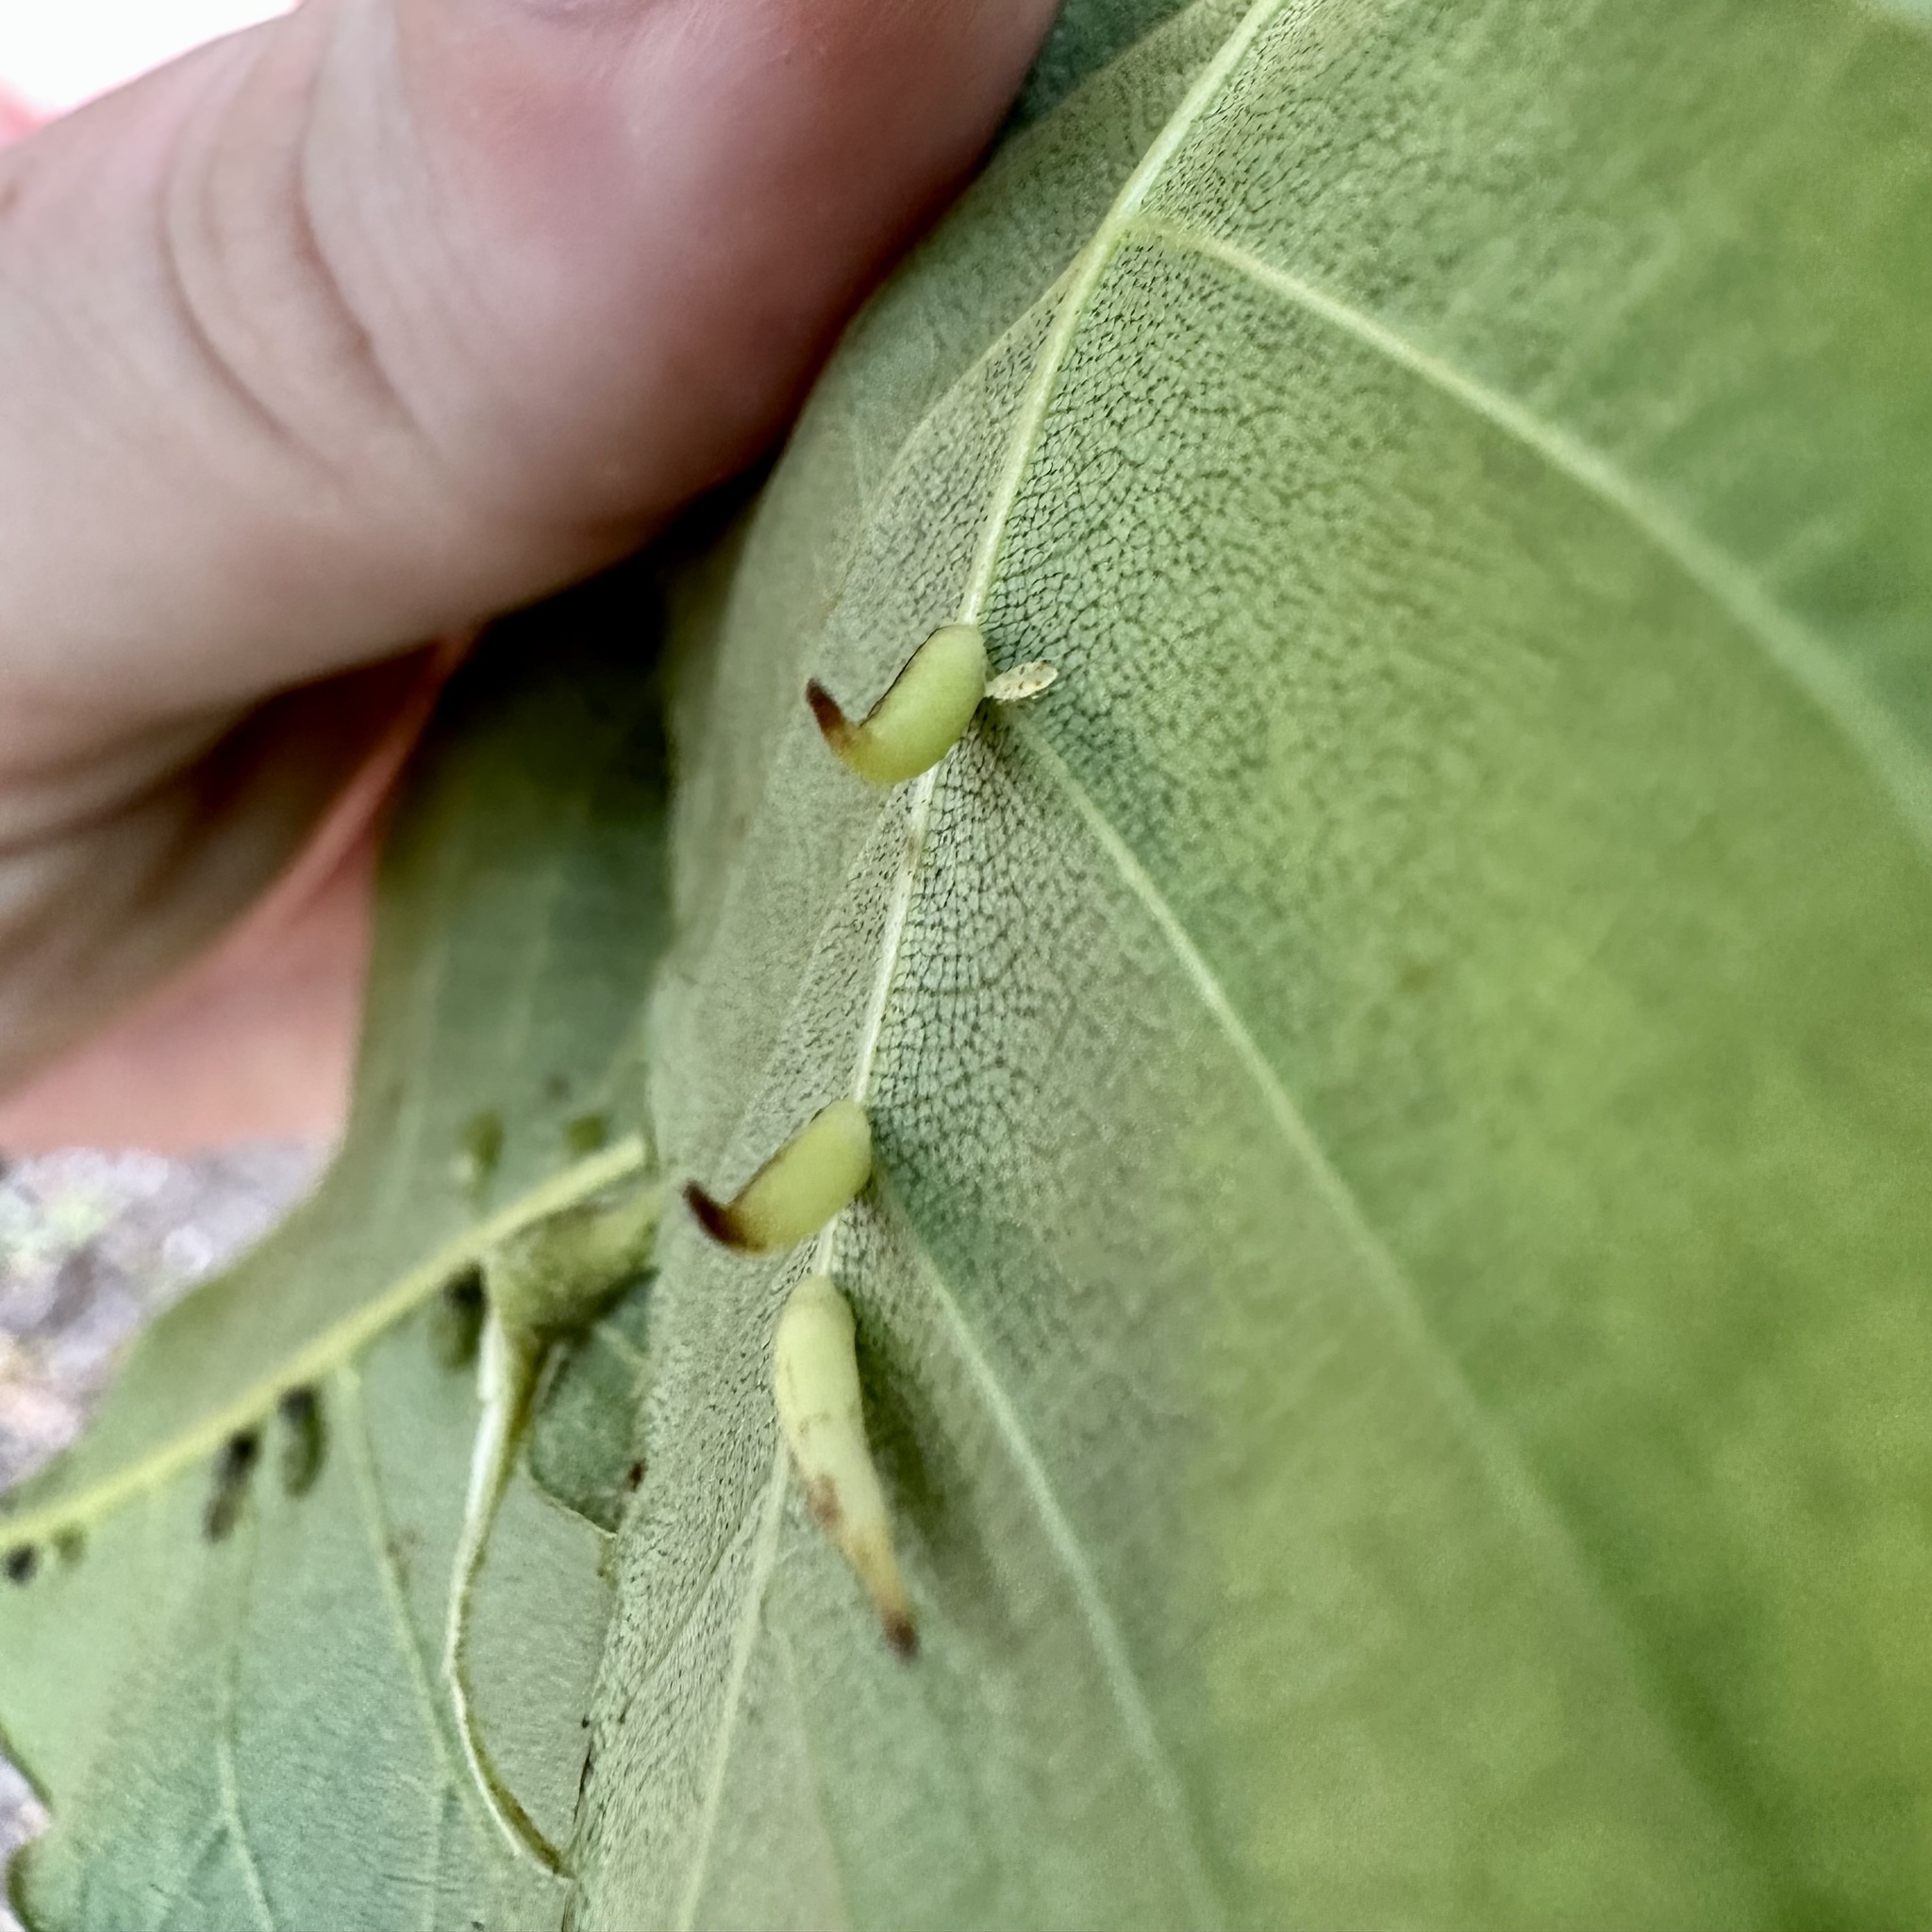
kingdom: Animalia
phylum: Arthropoda
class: Insecta
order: Diptera
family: Cecidomyiidae
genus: Caryomyia
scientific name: Caryomyia
